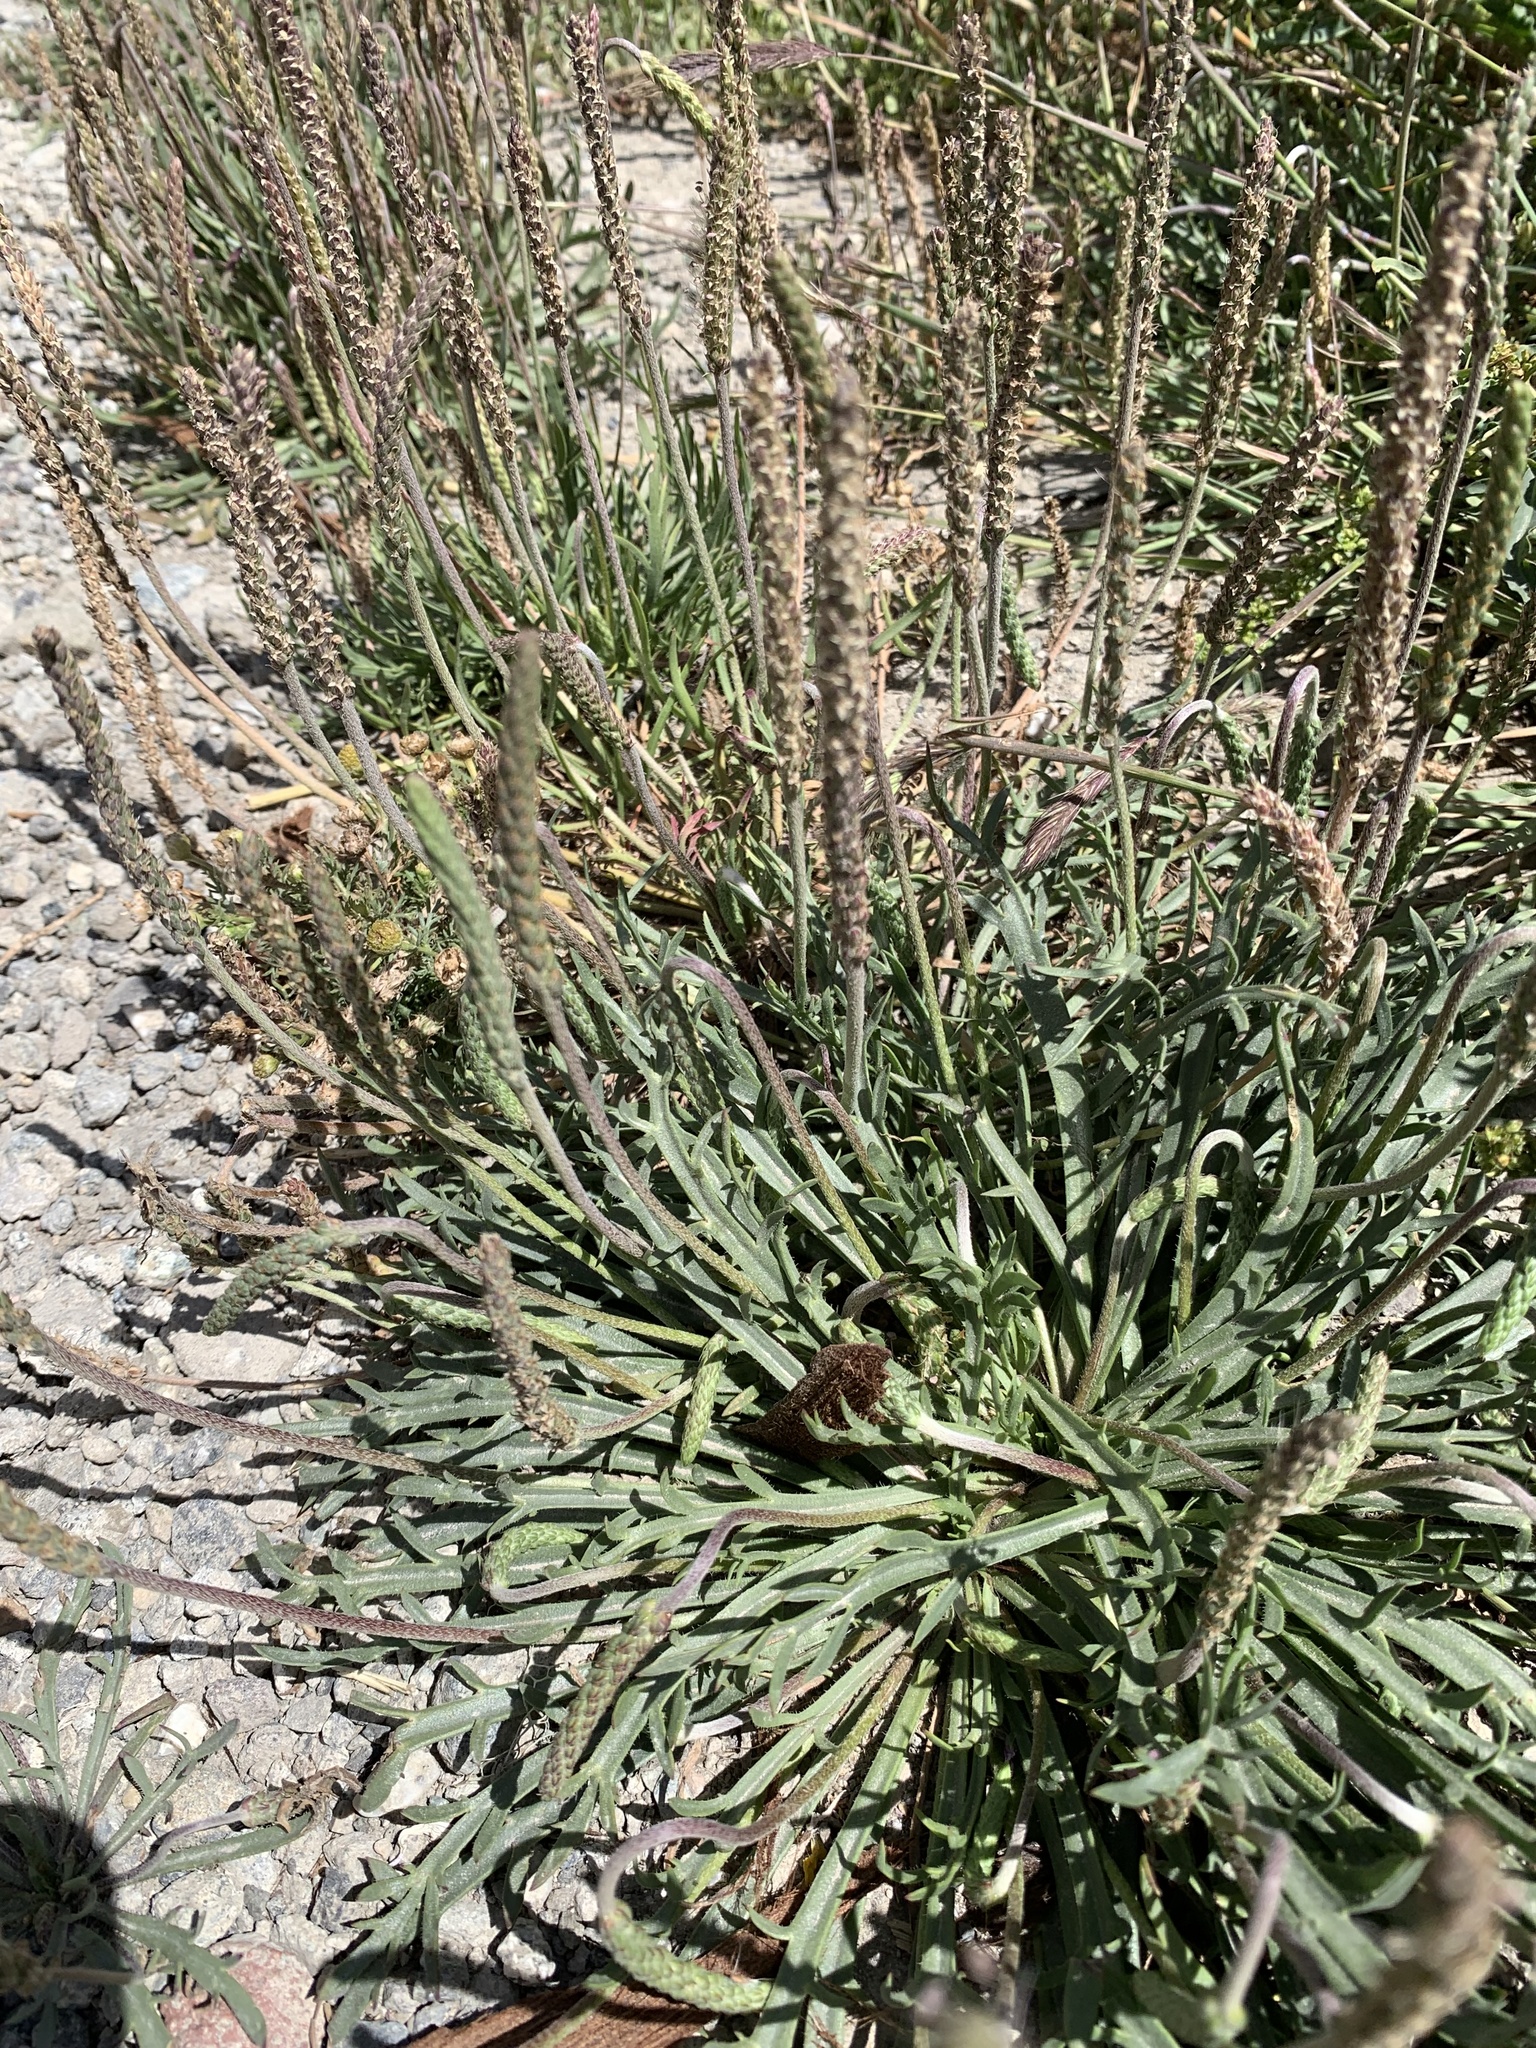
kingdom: Plantae
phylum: Tracheophyta
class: Magnoliopsida
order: Lamiales
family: Plantaginaceae
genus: Plantago
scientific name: Plantago coronopus
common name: Buck's-horn plantain
